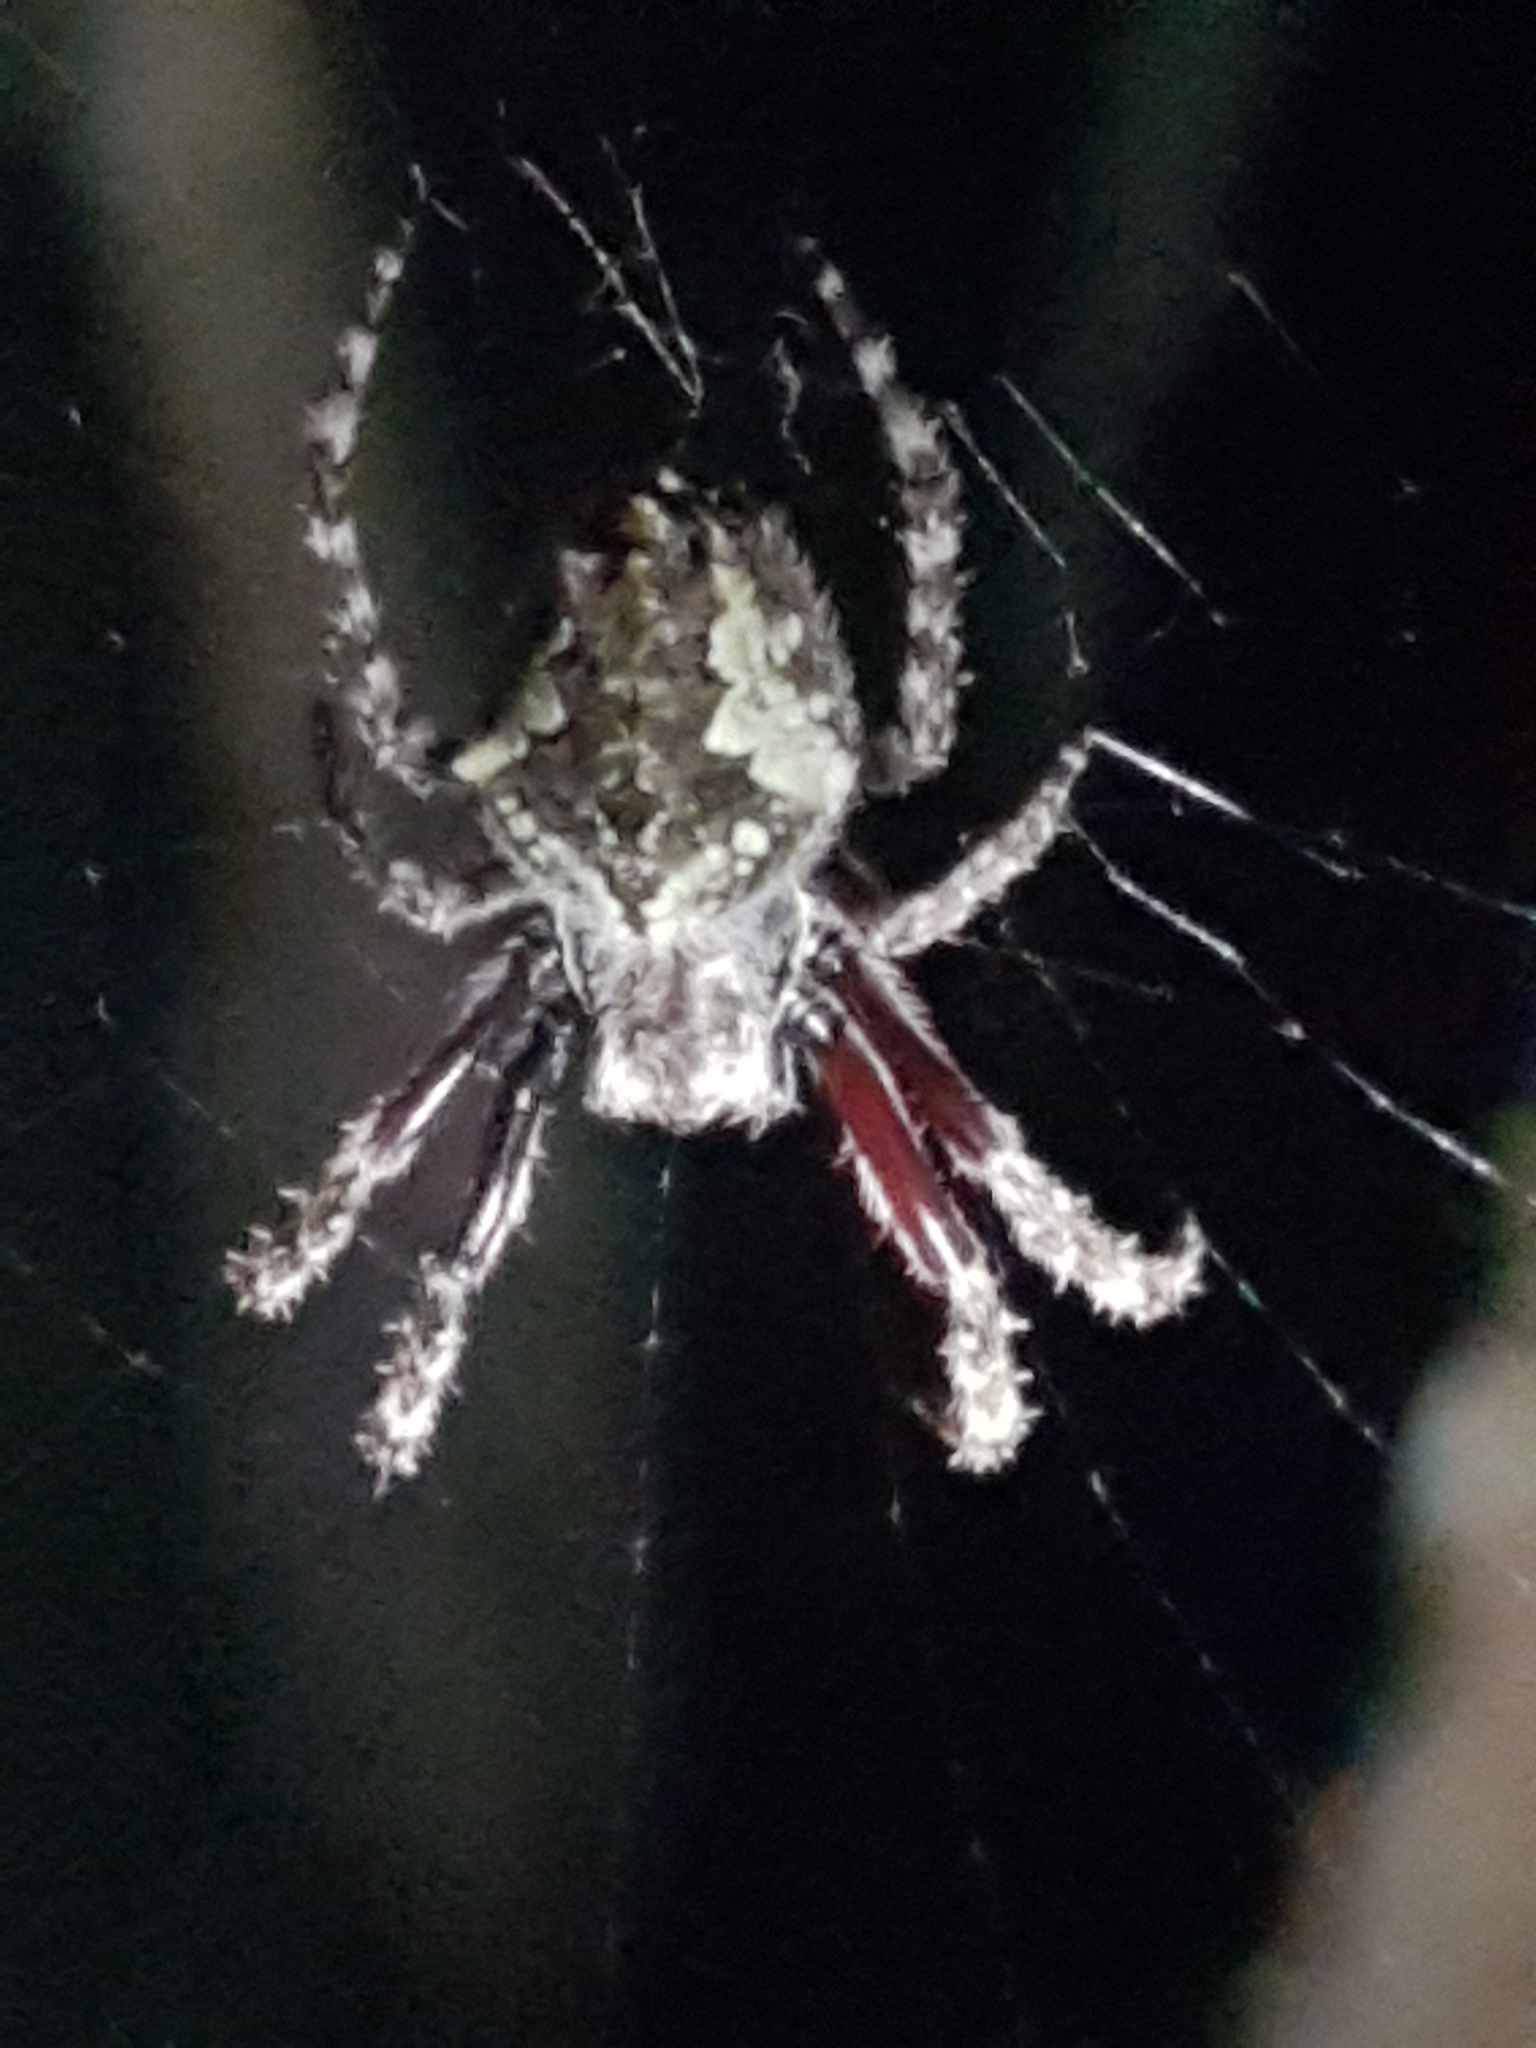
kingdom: Animalia
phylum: Arthropoda
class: Arachnida
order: Araneae
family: Araneidae
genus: Eriophora
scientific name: Eriophora pustulosa
